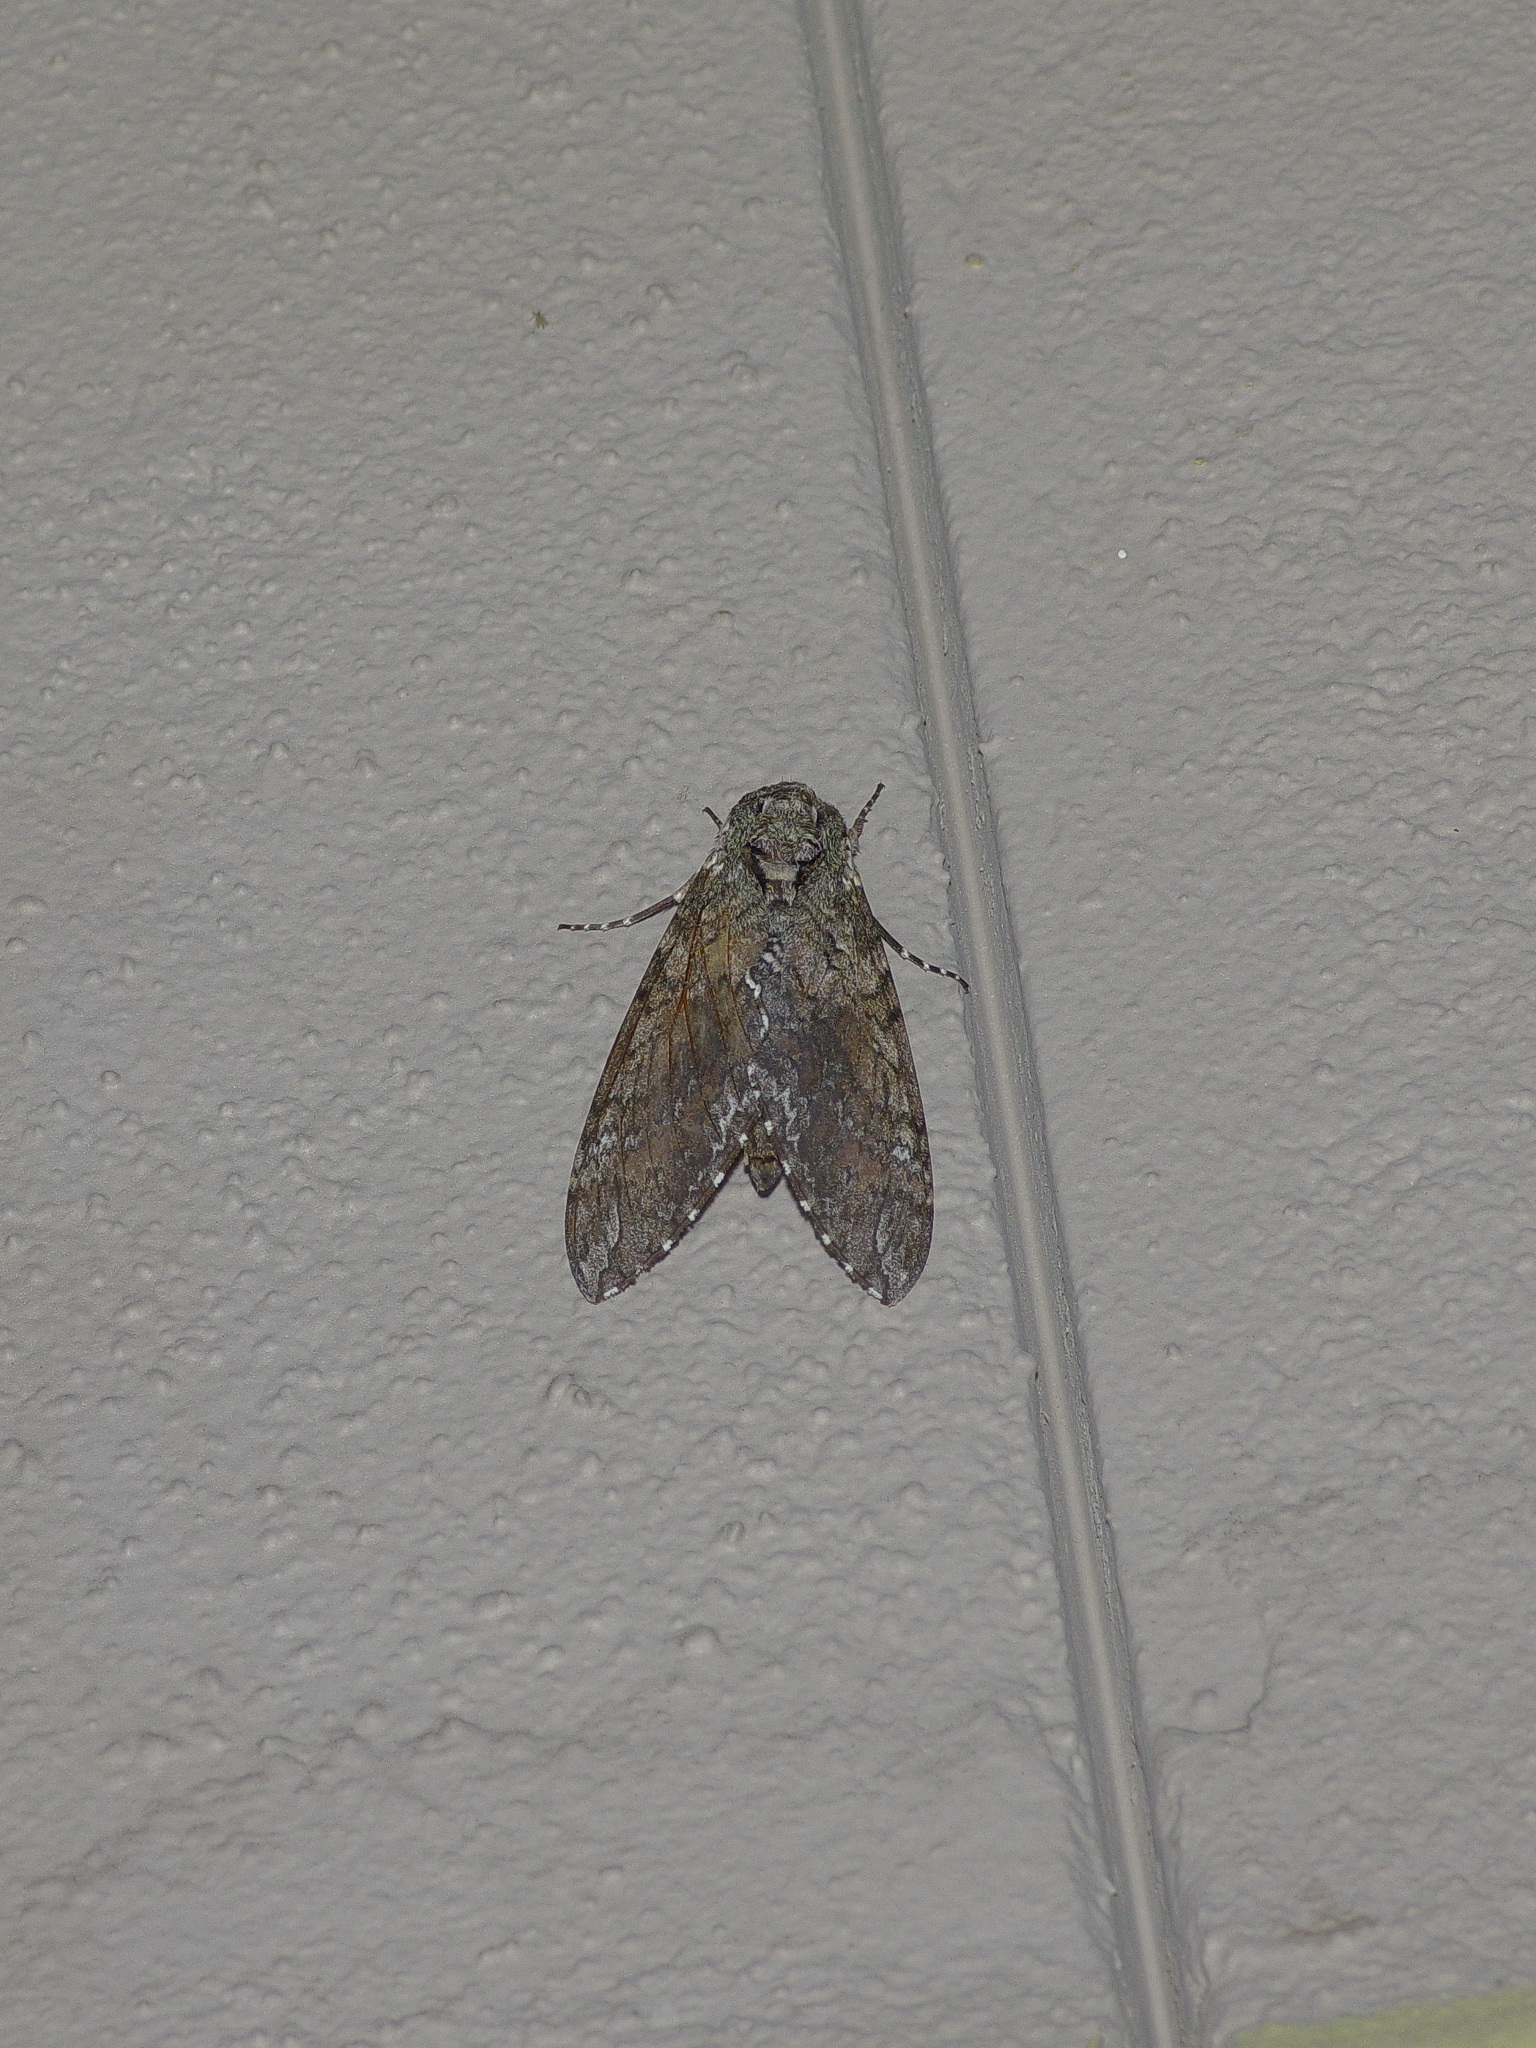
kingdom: Animalia
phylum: Arthropoda
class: Insecta
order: Lepidoptera
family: Sphingidae
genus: Manduca
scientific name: Manduca sexta
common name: Carolina sphinx
